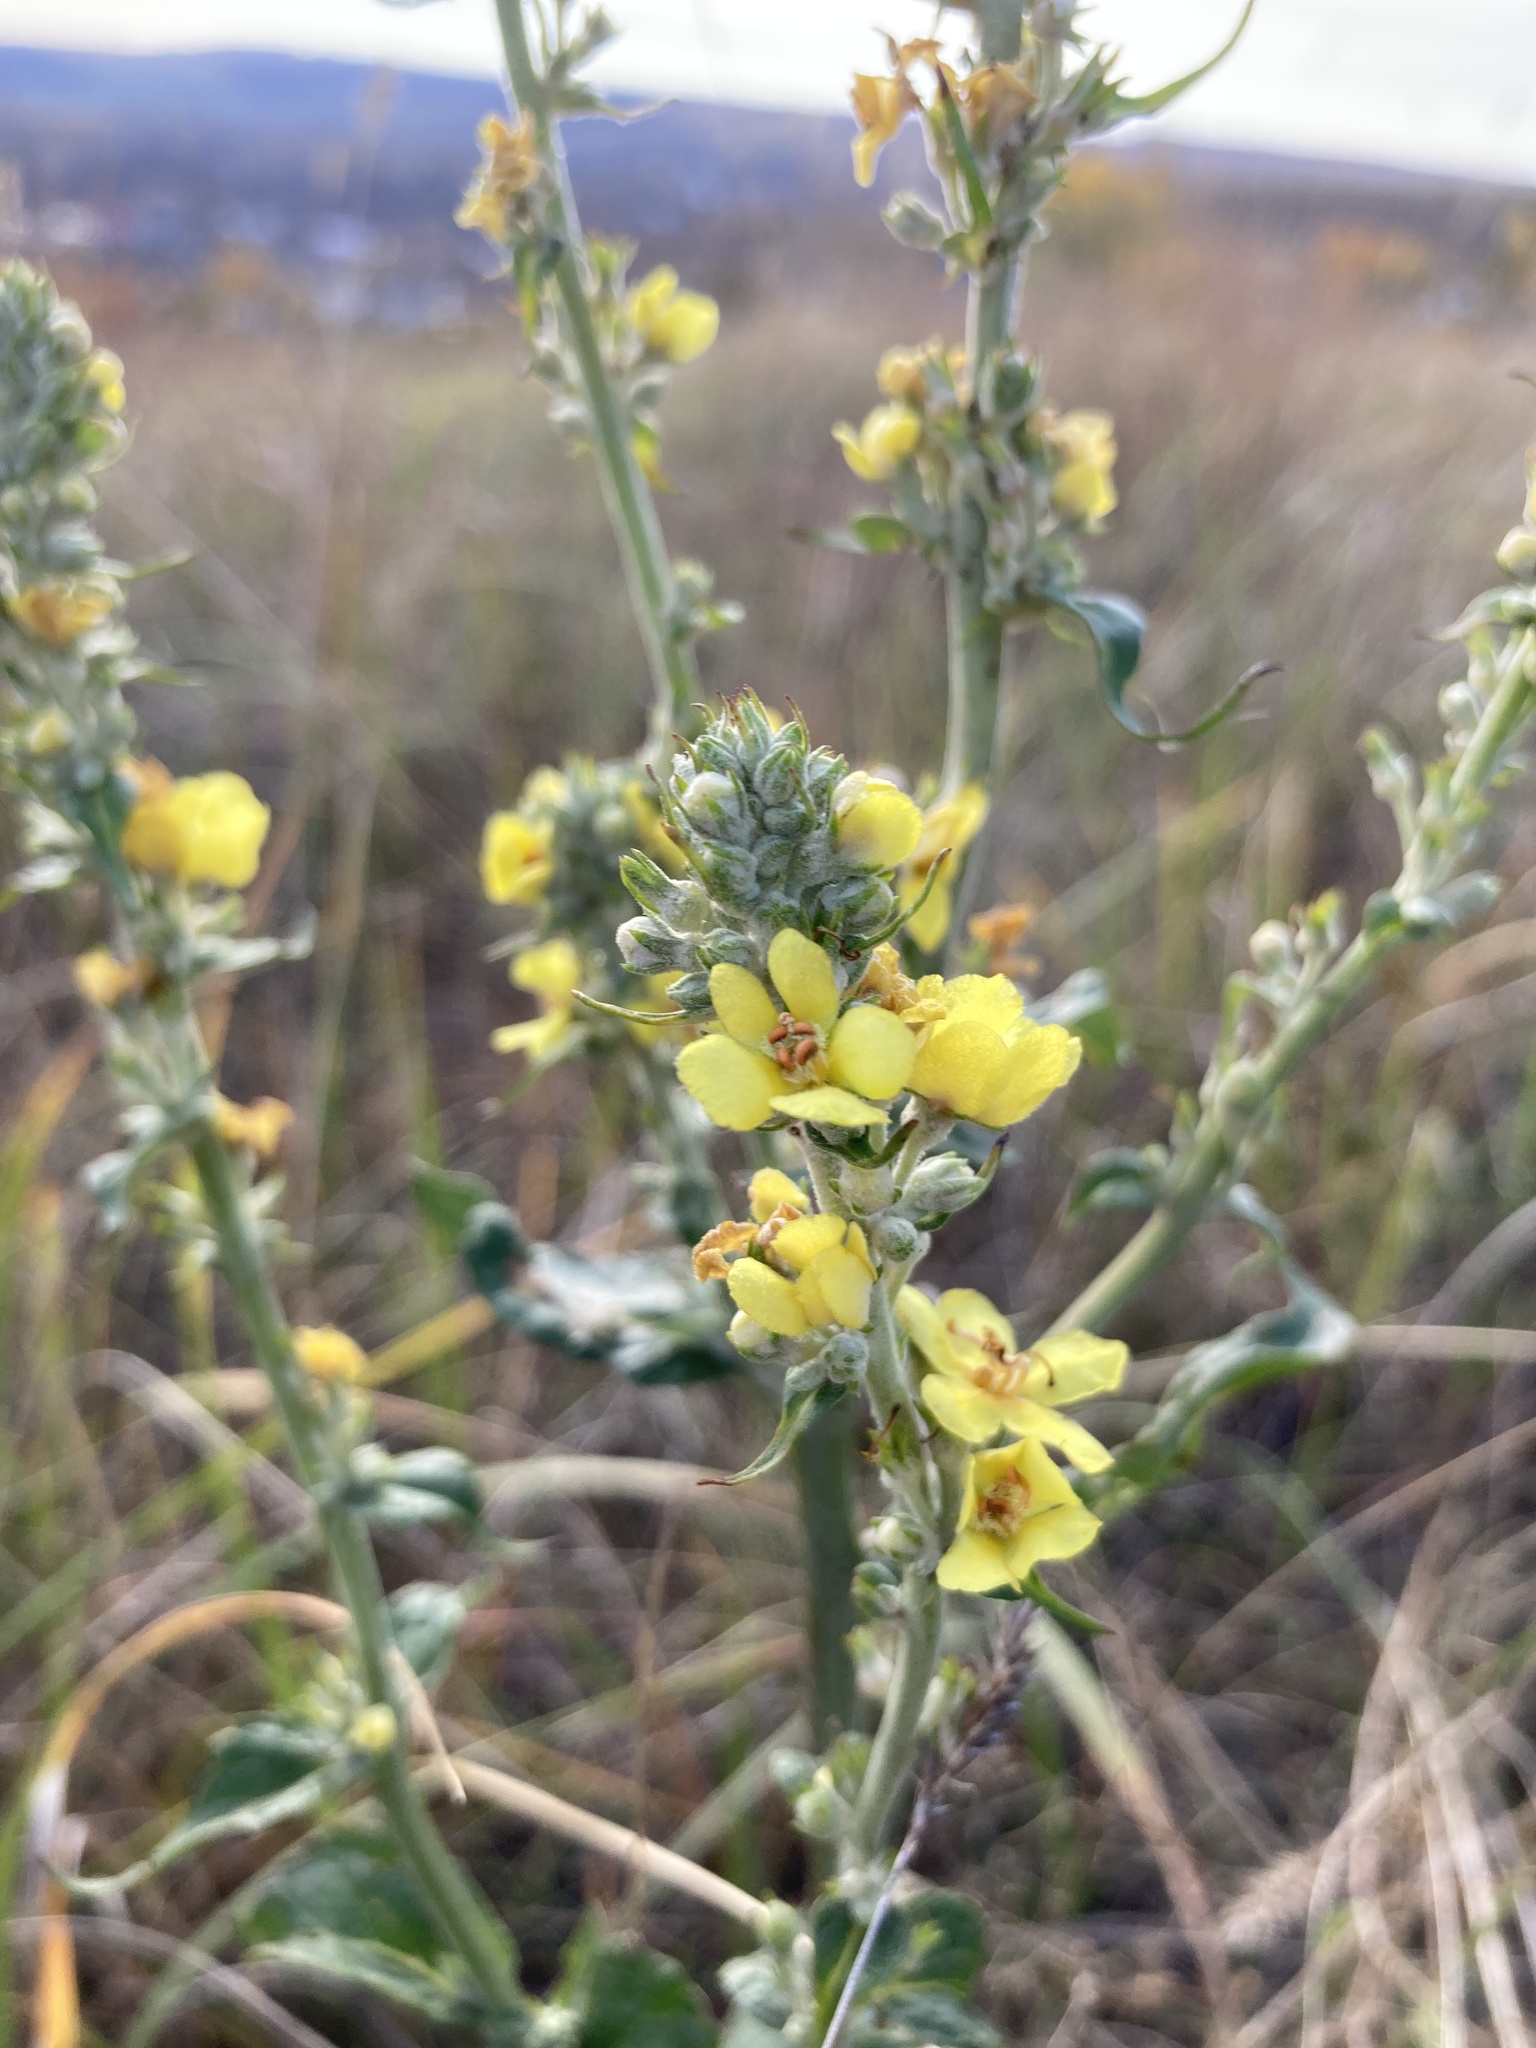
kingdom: Plantae
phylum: Tracheophyta
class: Magnoliopsida
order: Lamiales
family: Scrophulariaceae
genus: Verbascum
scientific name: Verbascum lychnitis
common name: White mullein
